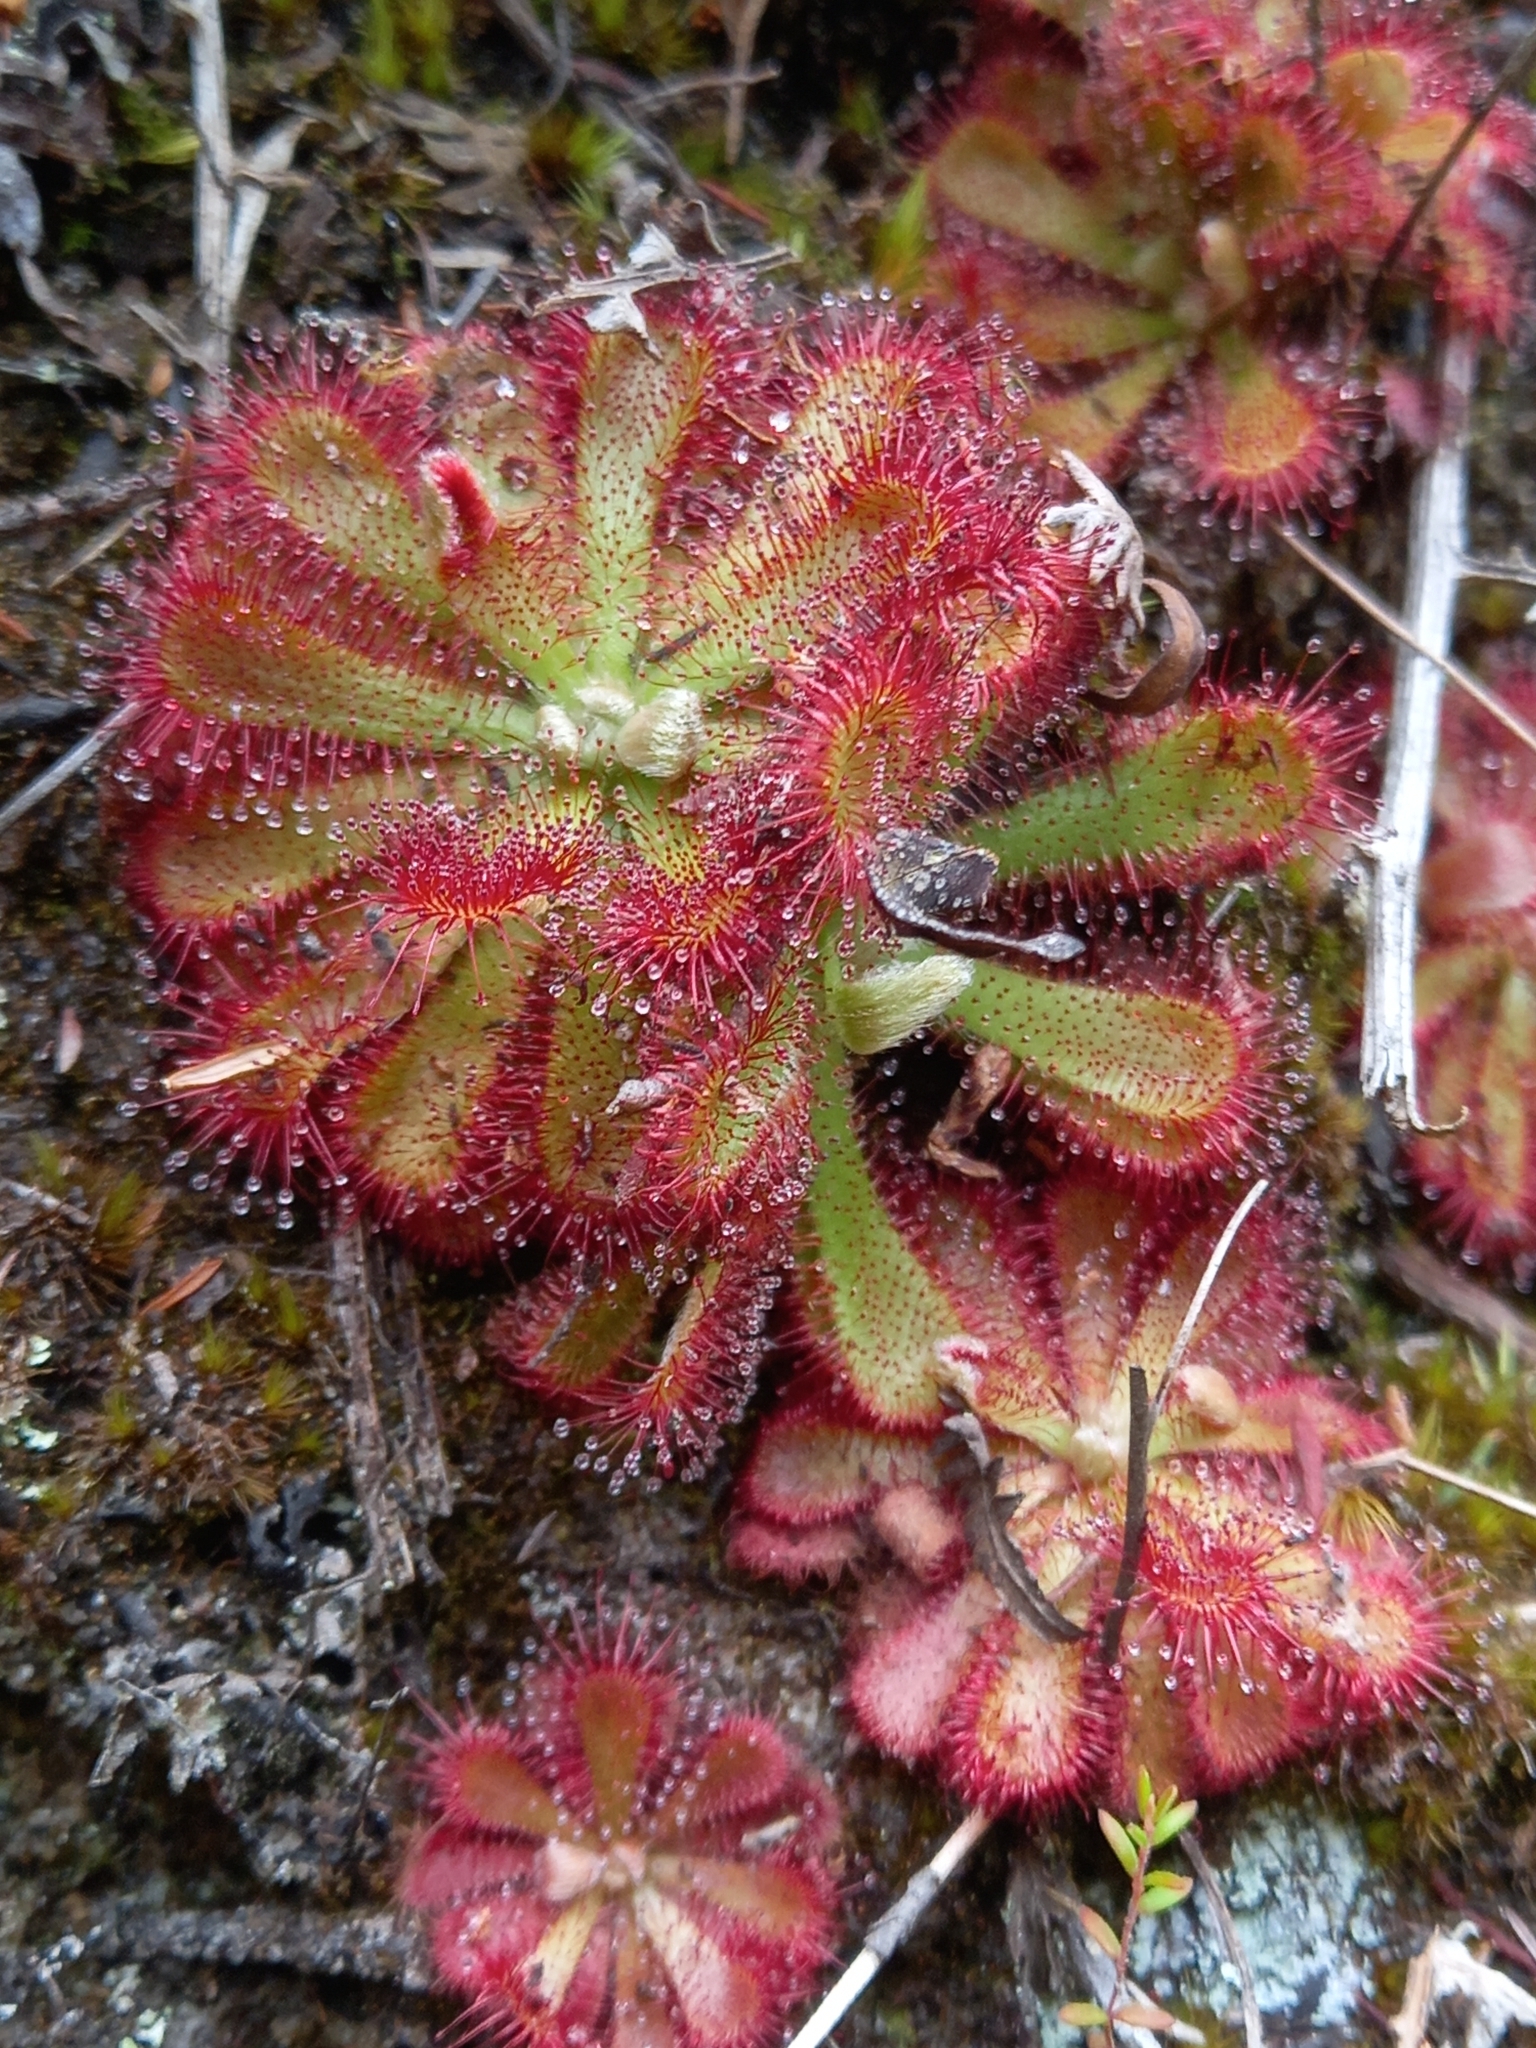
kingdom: Plantae
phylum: Tracheophyta
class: Magnoliopsida
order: Caryophyllales
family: Droseraceae
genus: Drosera
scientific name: Drosera aliciae
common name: Alice sundew
